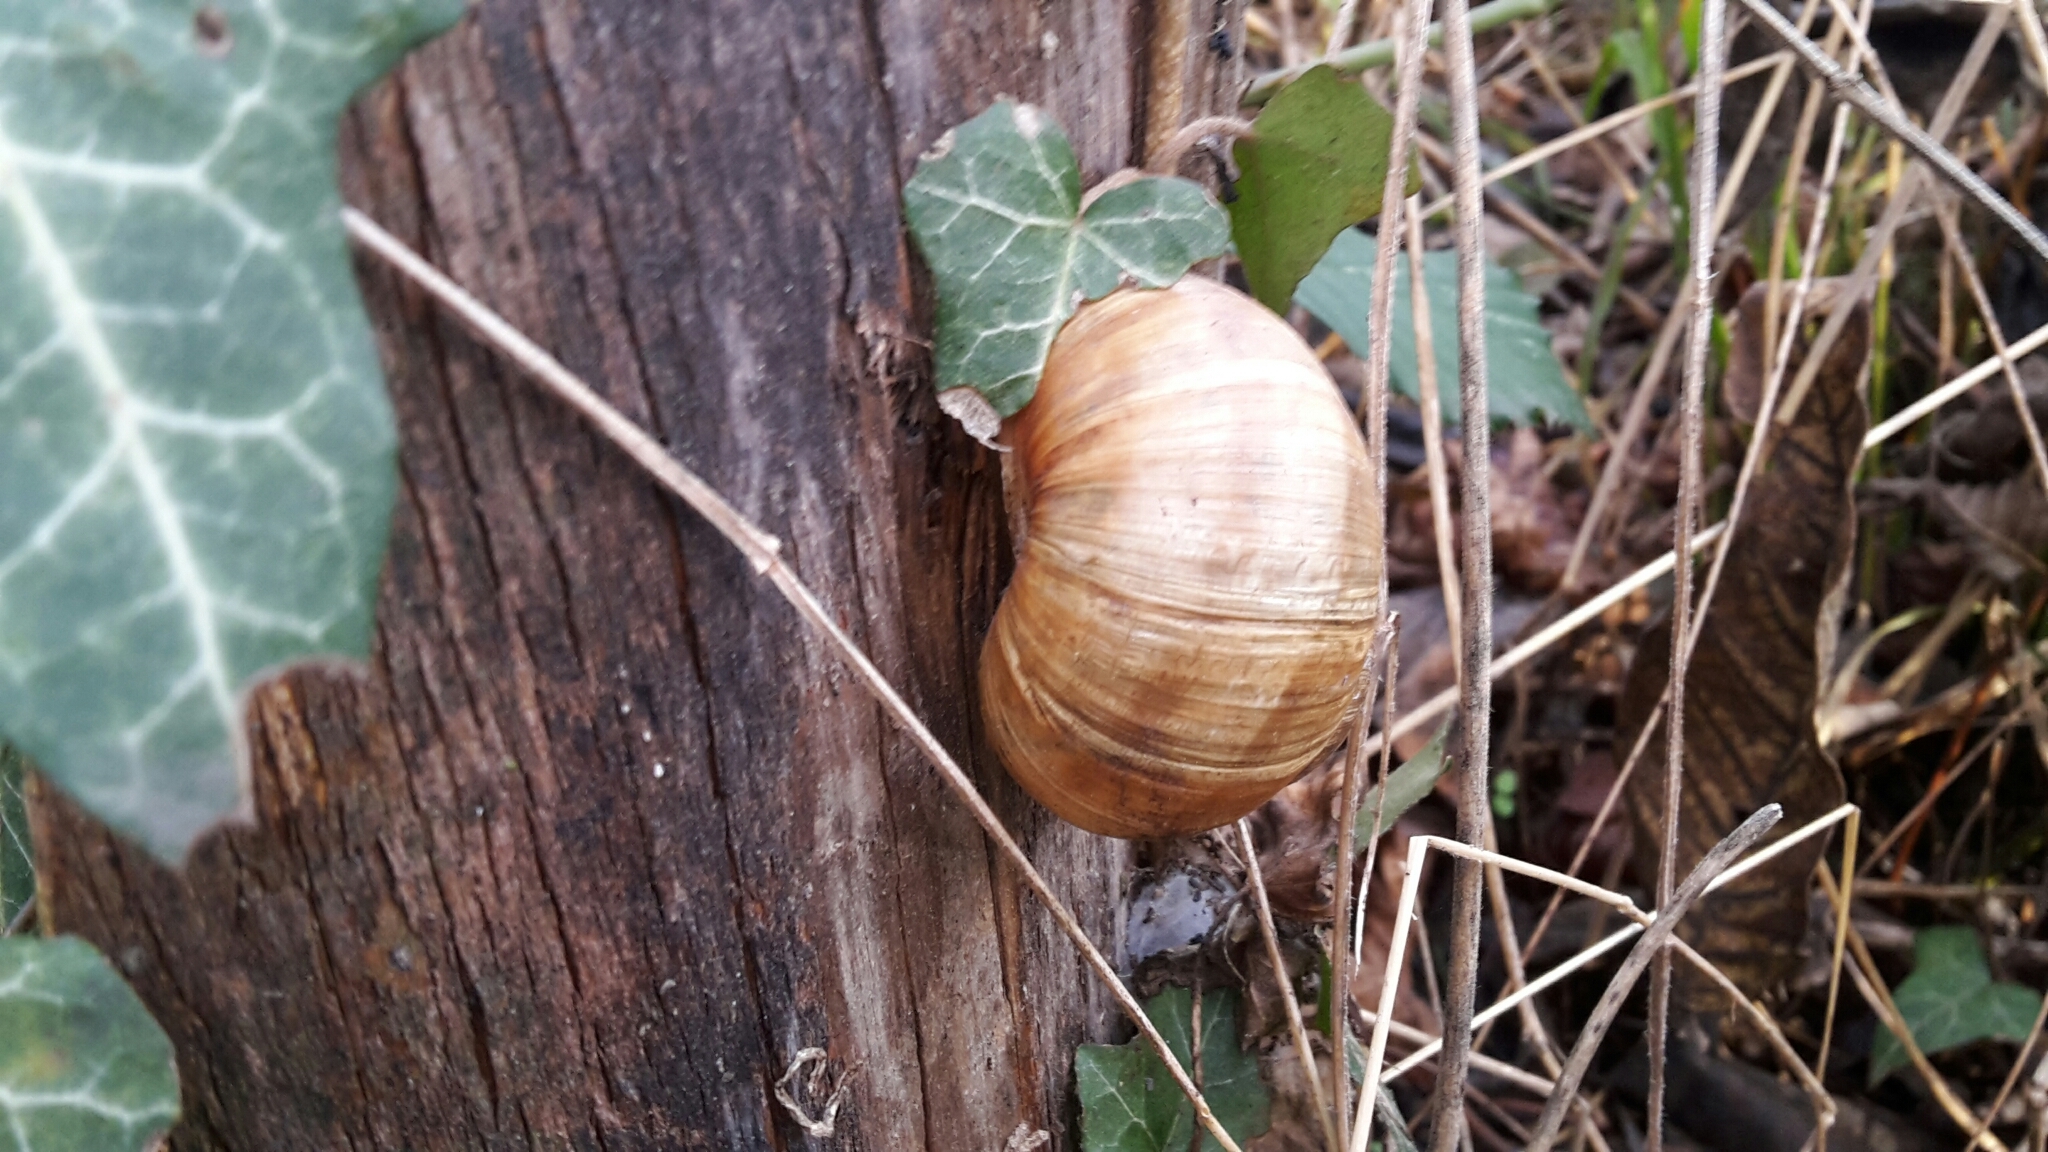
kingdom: Animalia
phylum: Mollusca
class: Gastropoda
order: Stylommatophora
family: Helicidae
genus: Helix
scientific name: Helix pomatia
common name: Roman snail
